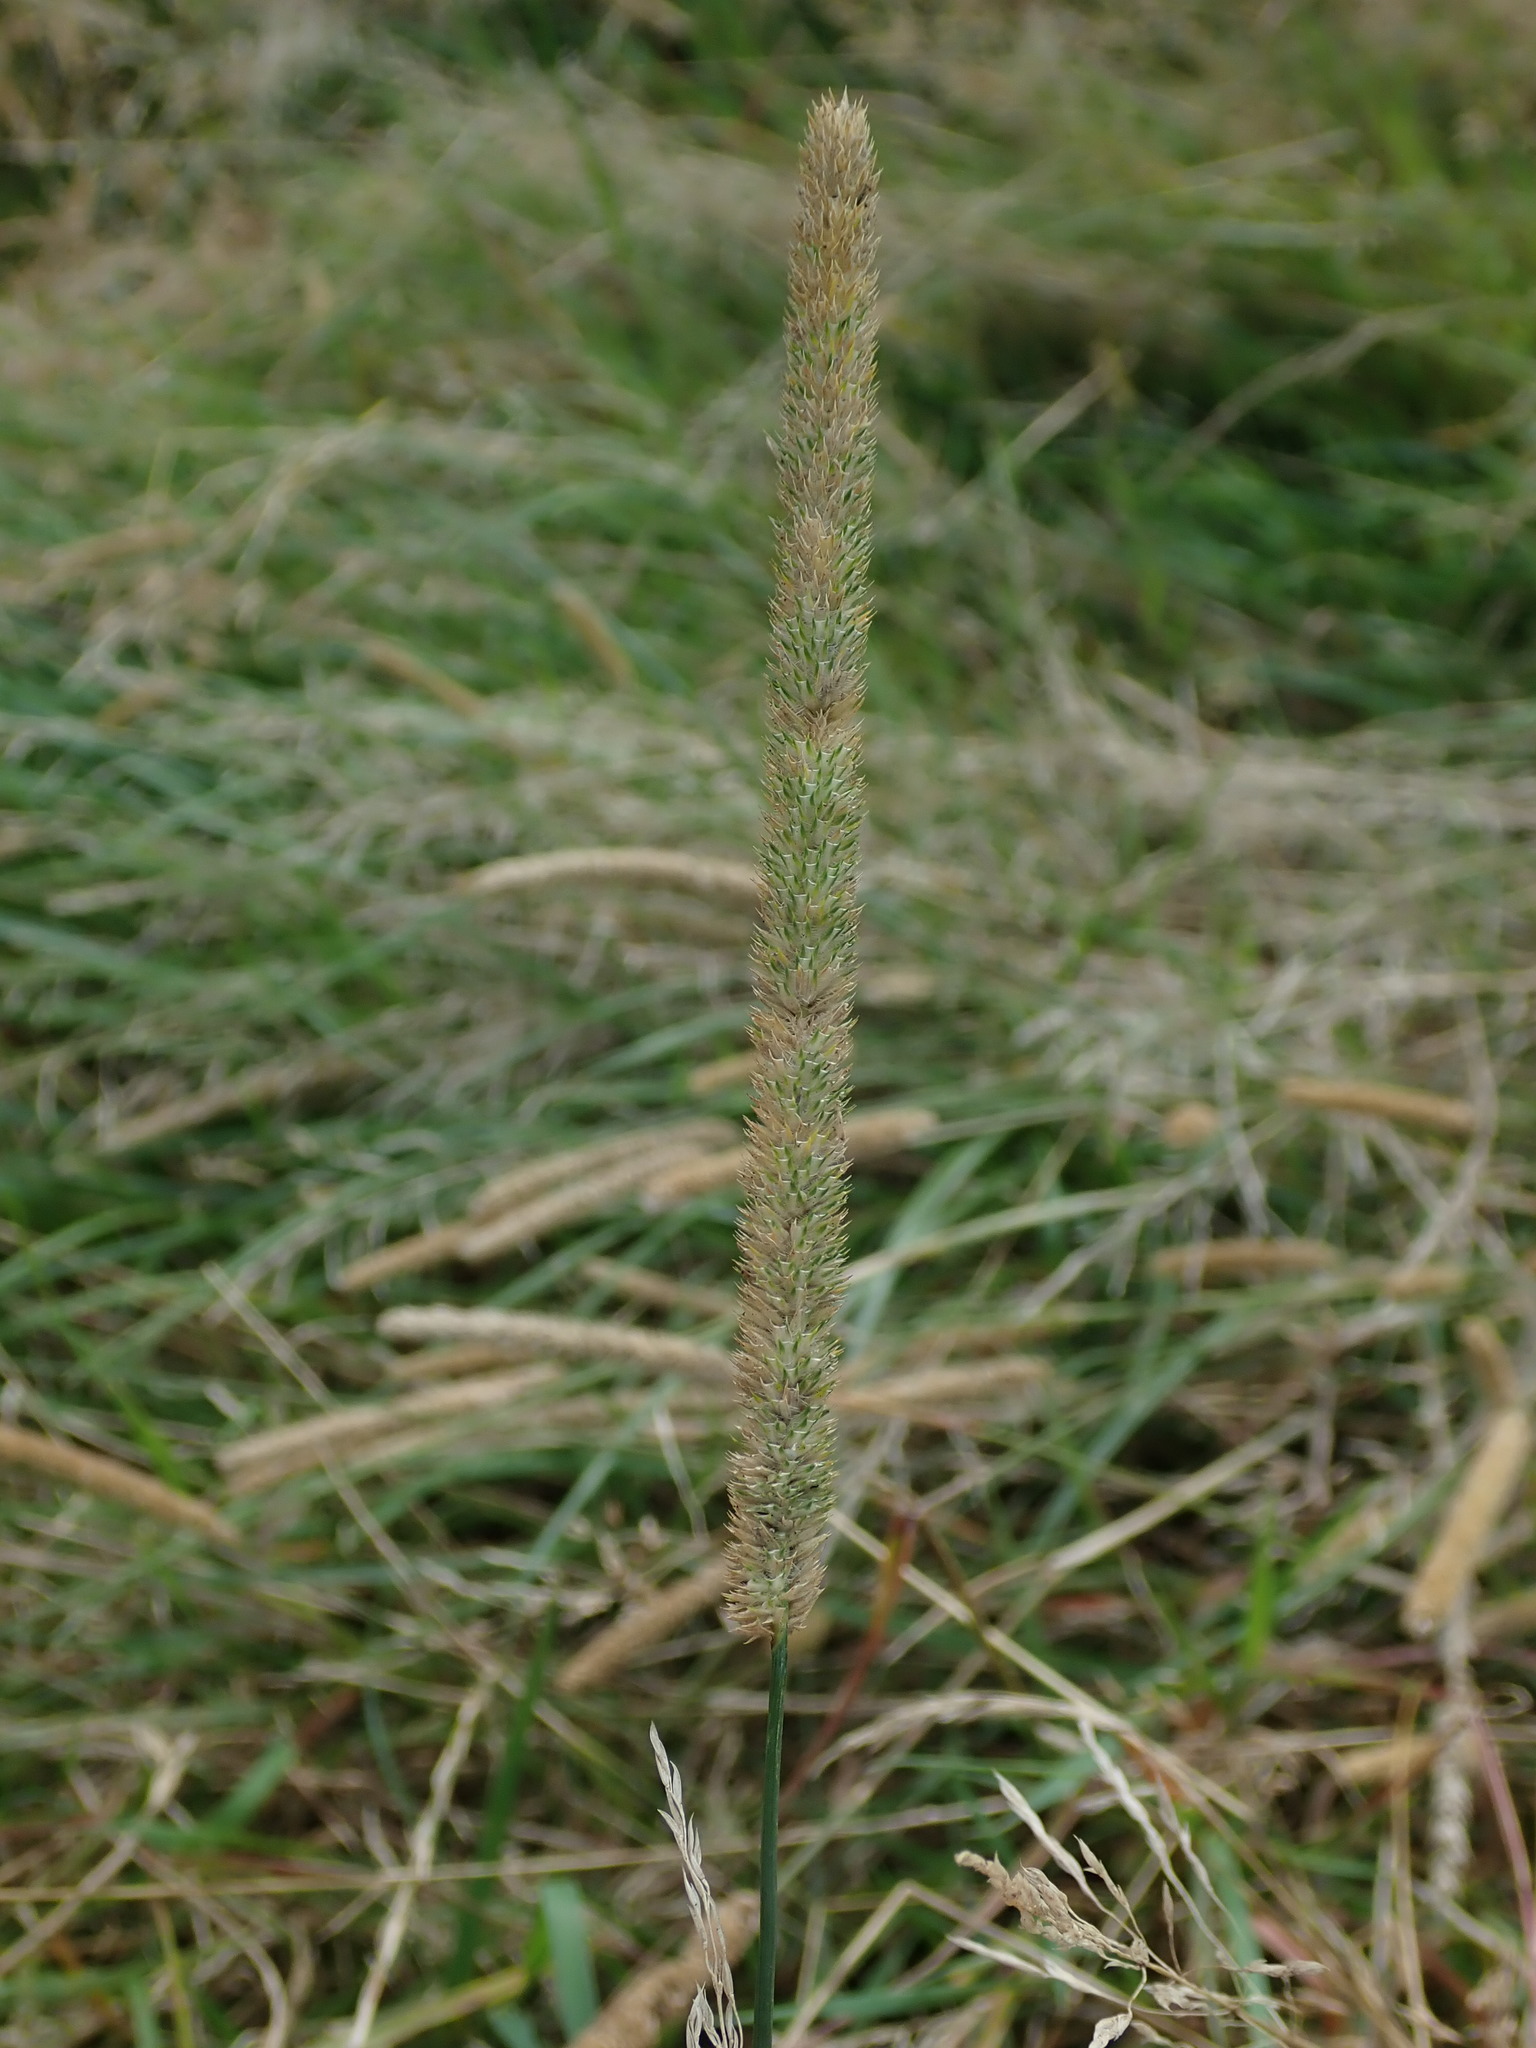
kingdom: Plantae
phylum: Tracheophyta
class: Liliopsida
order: Poales
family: Poaceae
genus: Phleum
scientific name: Phleum pratense
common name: Timothy grass
